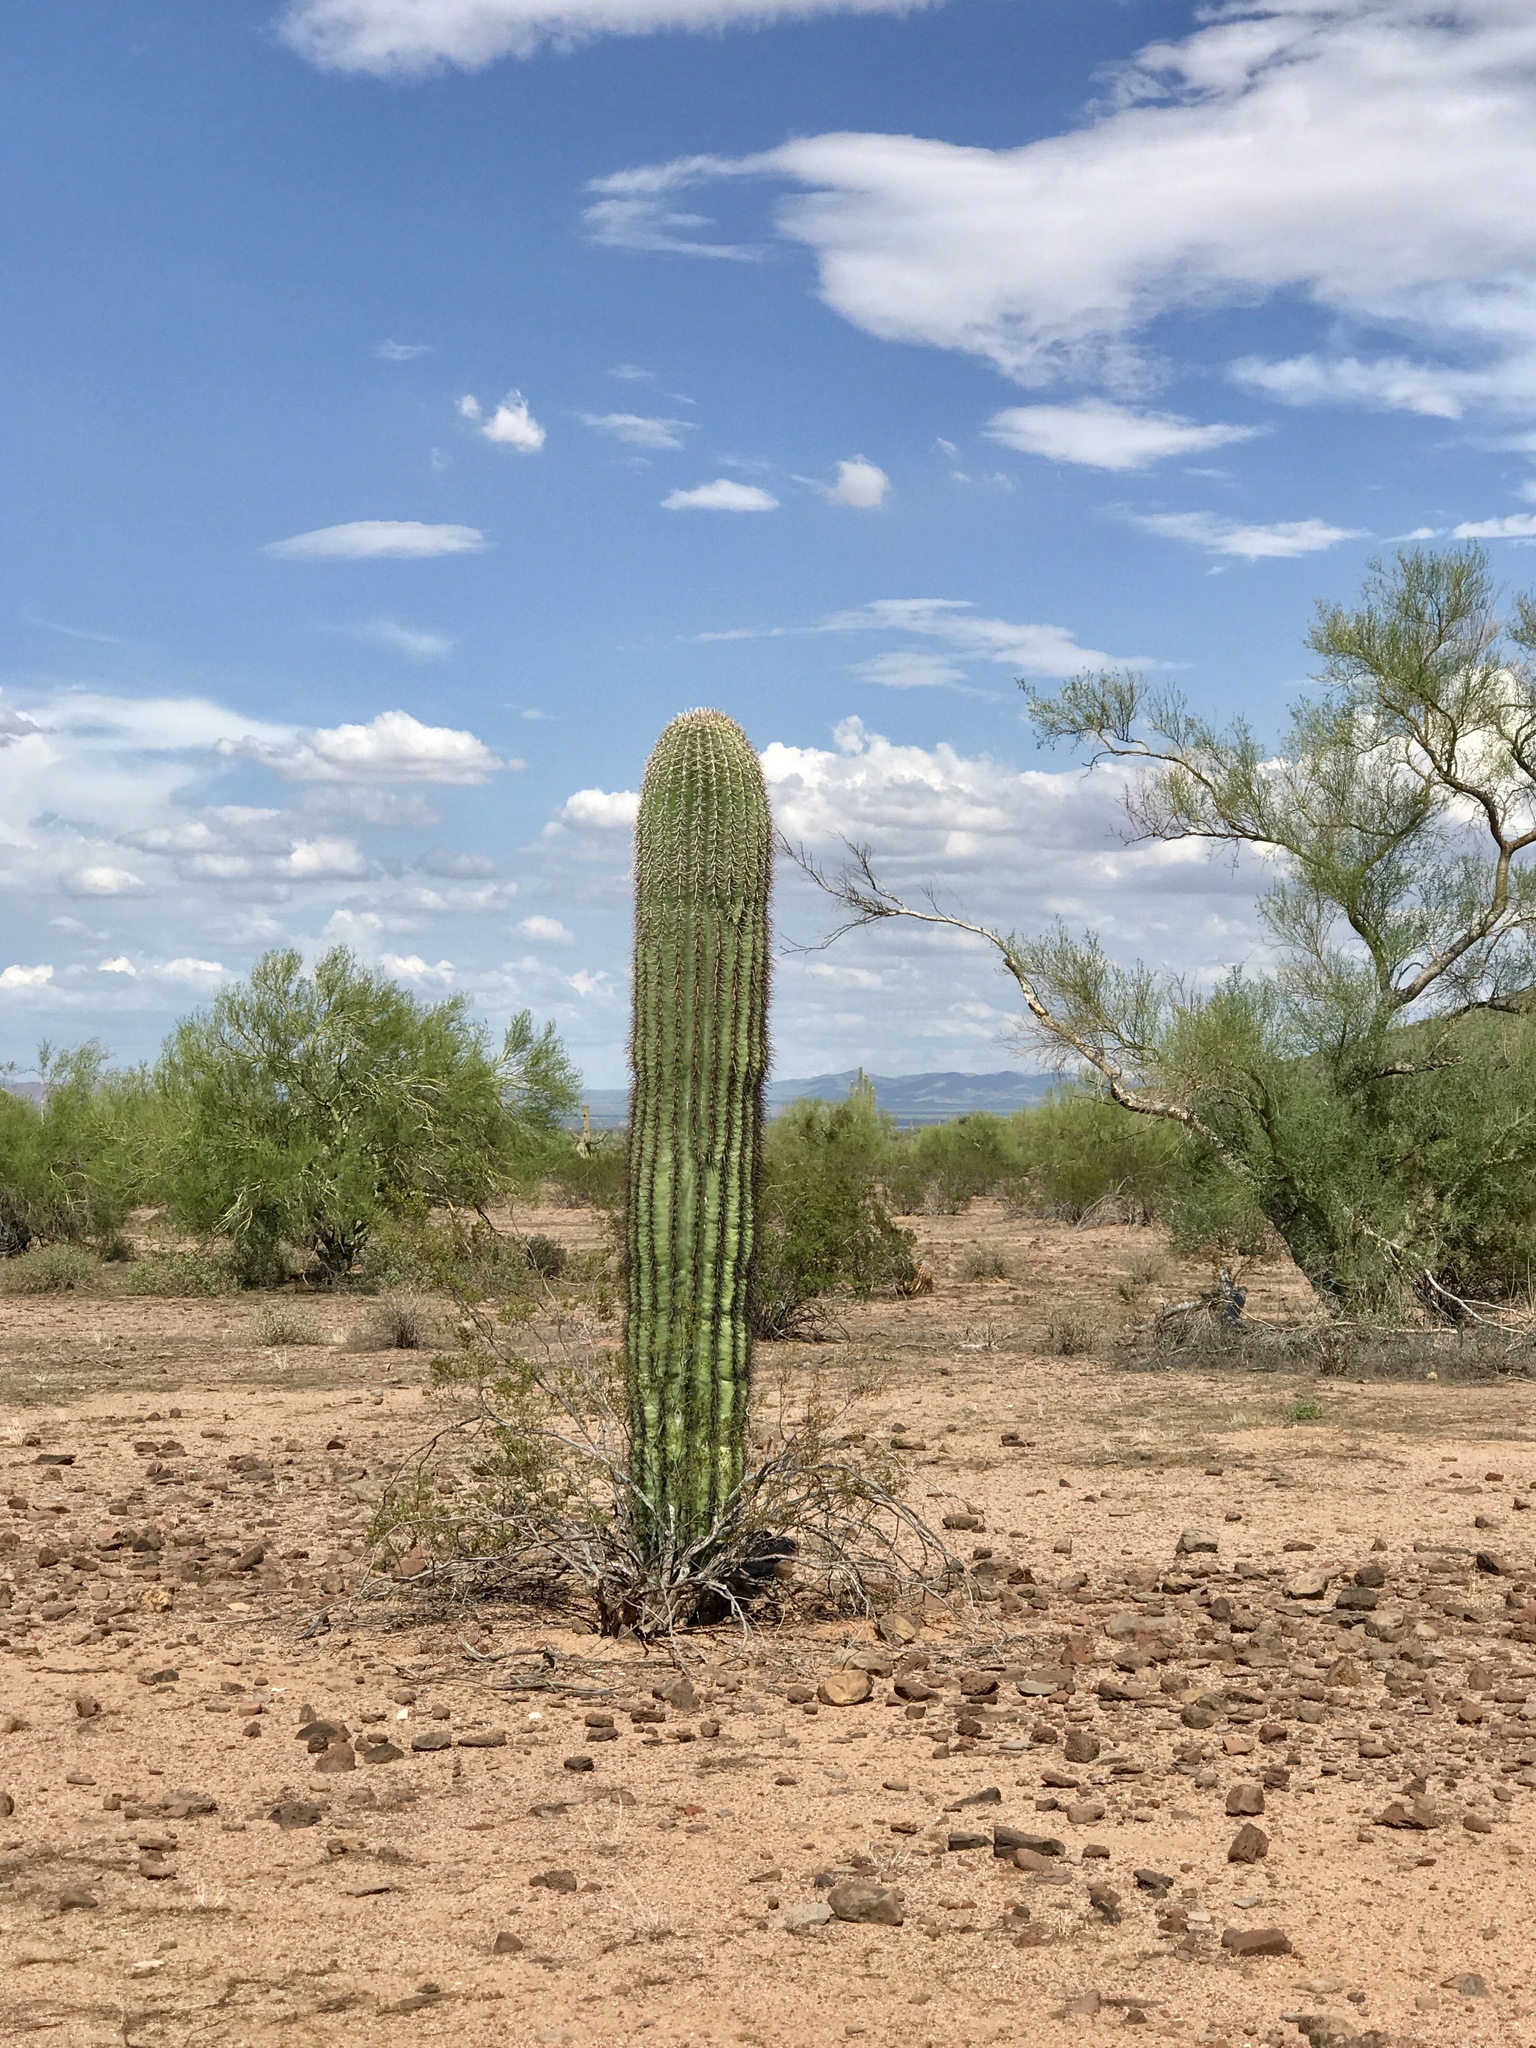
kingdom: Plantae
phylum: Tracheophyta
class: Magnoliopsida
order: Caryophyllales
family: Cactaceae
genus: Carnegiea
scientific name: Carnegiea gigantea
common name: Saguaro
